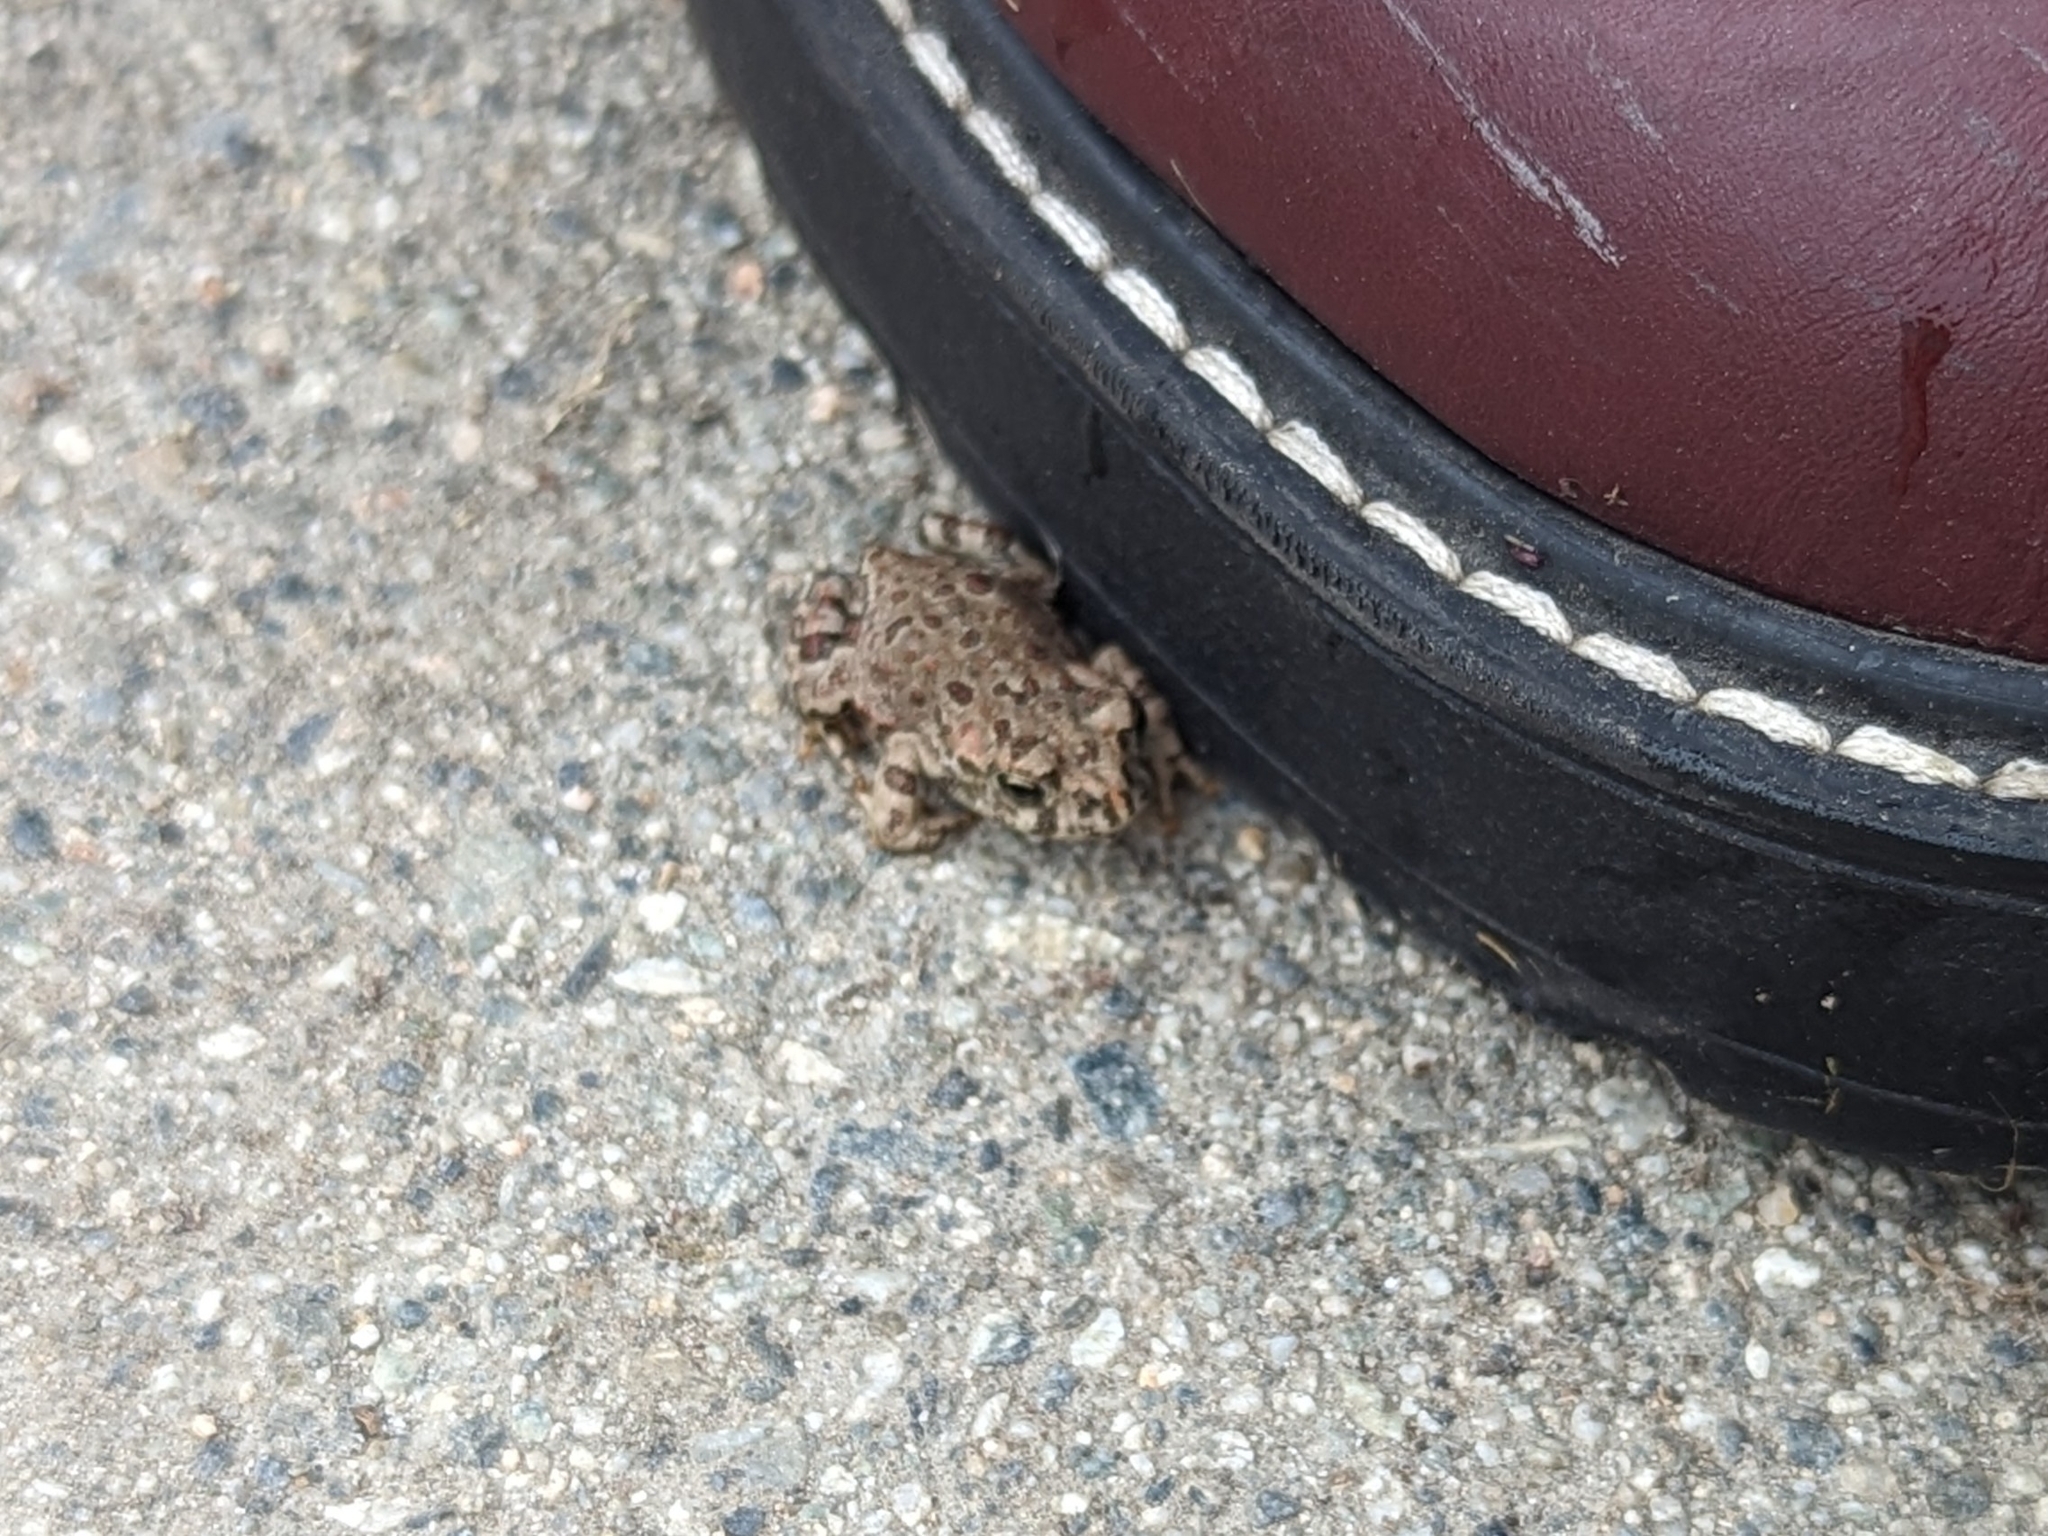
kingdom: Animalia
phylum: Chordata
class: Amphibia
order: Anura
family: Bufonidae
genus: Anaxyrus
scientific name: Anaxyrus boreas
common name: Western toad
